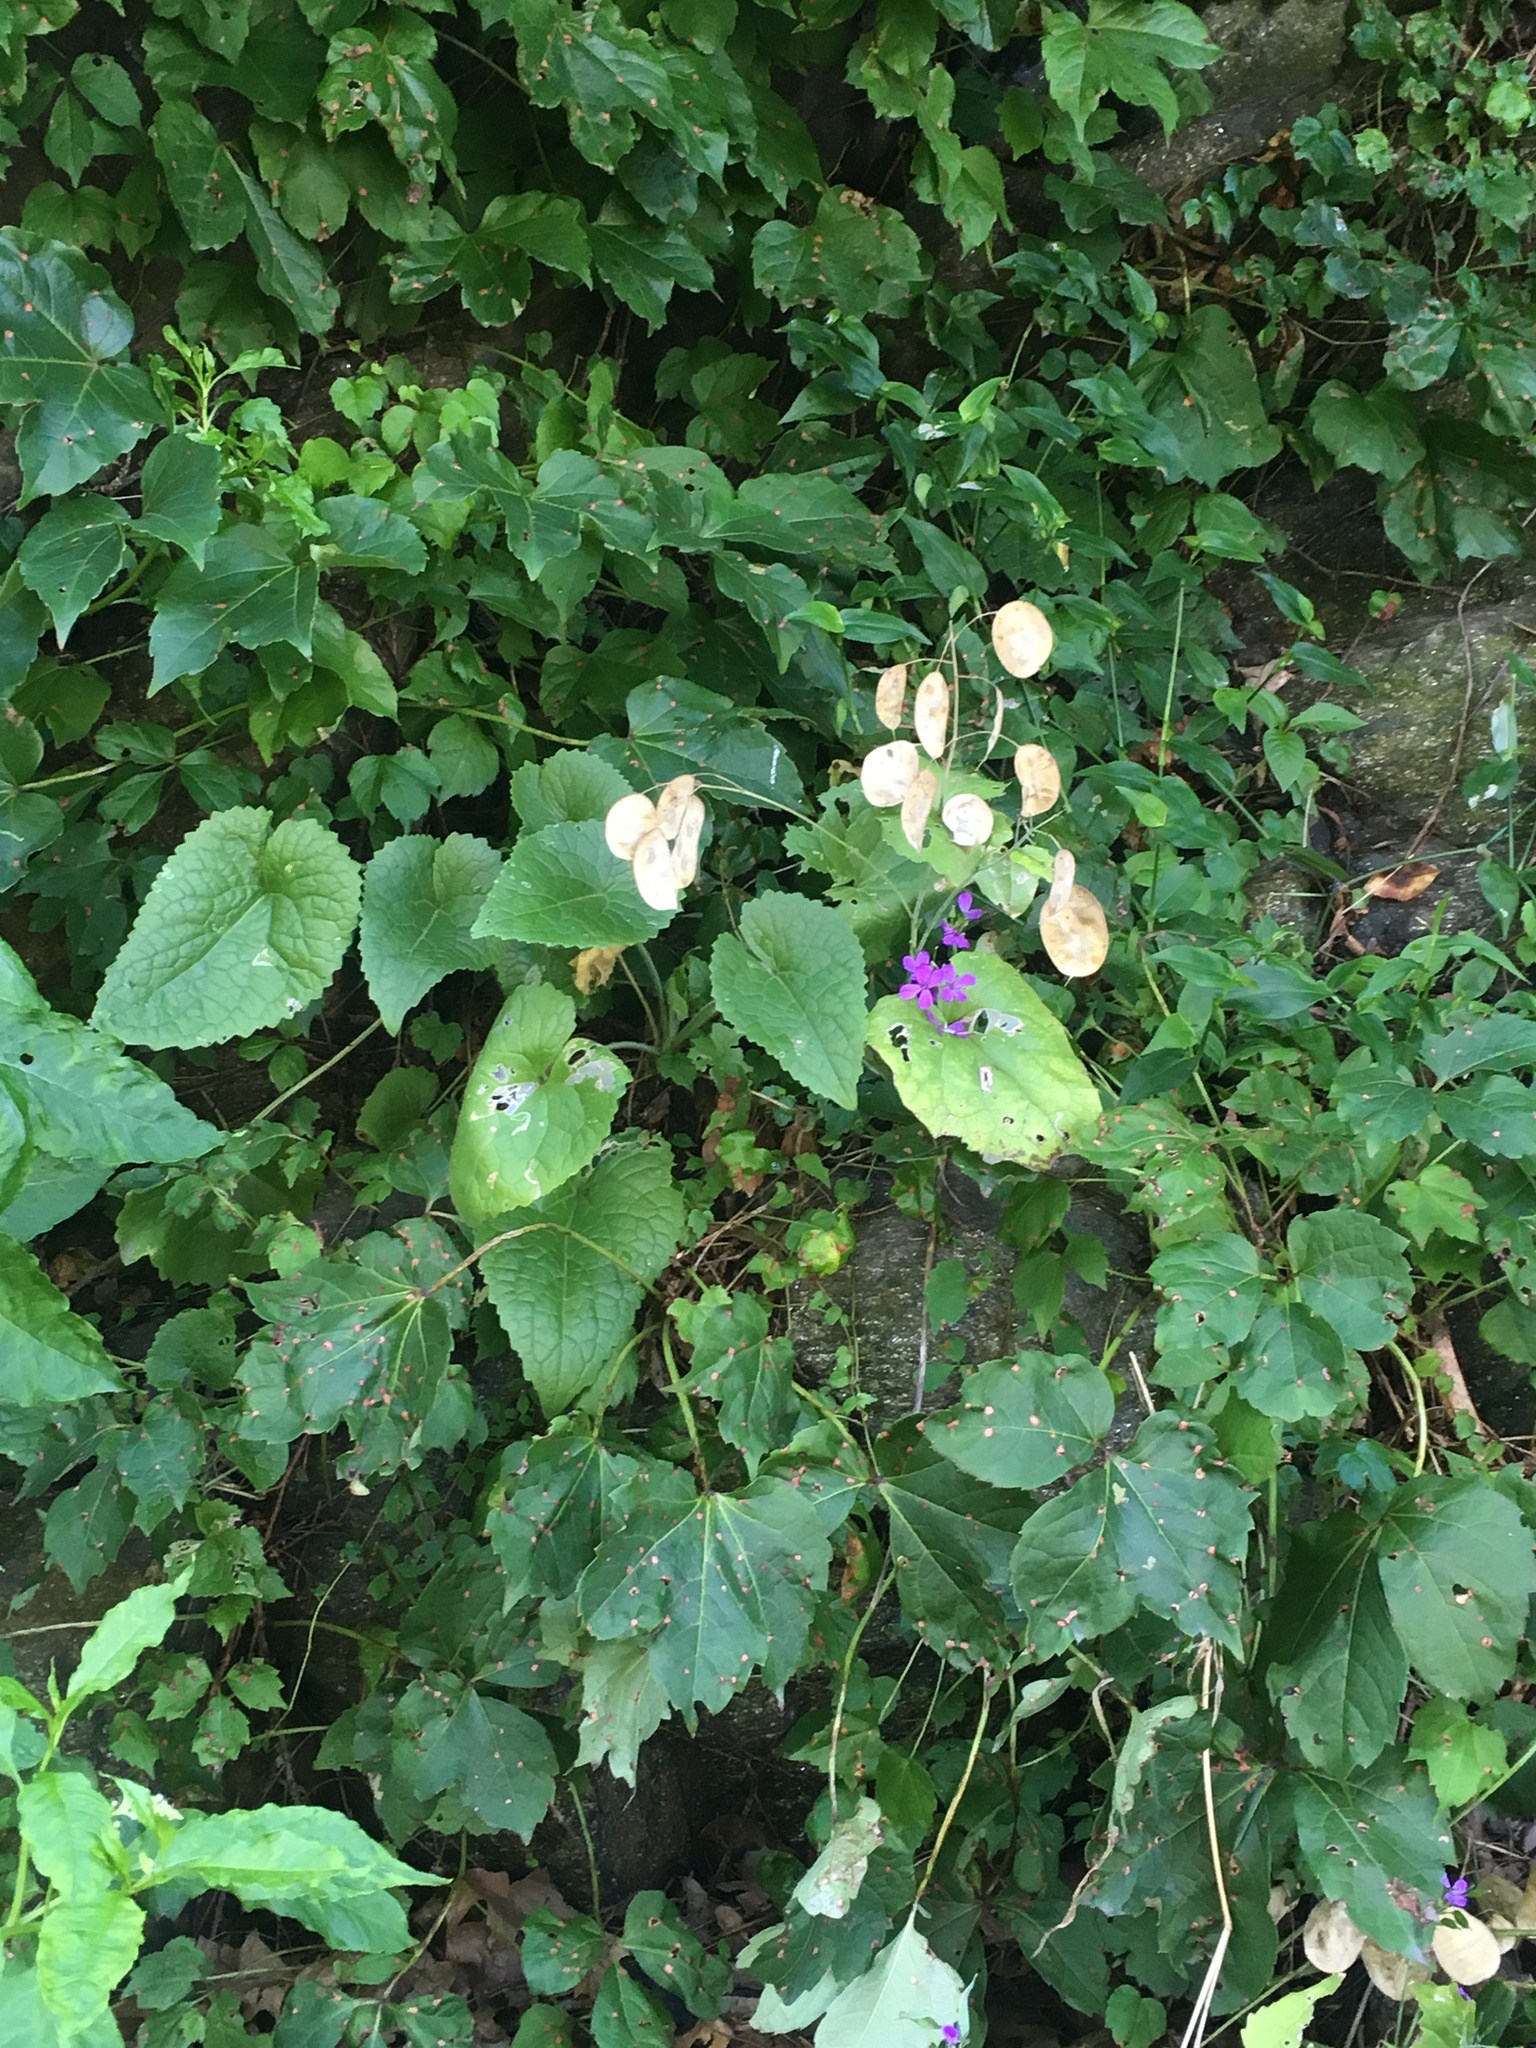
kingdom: Plantae
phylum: Tracheophyta
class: Magnoliopsida
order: Brassicales
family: Brassicaceae
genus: Lunaria
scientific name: Lunaria annua
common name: Honesty
